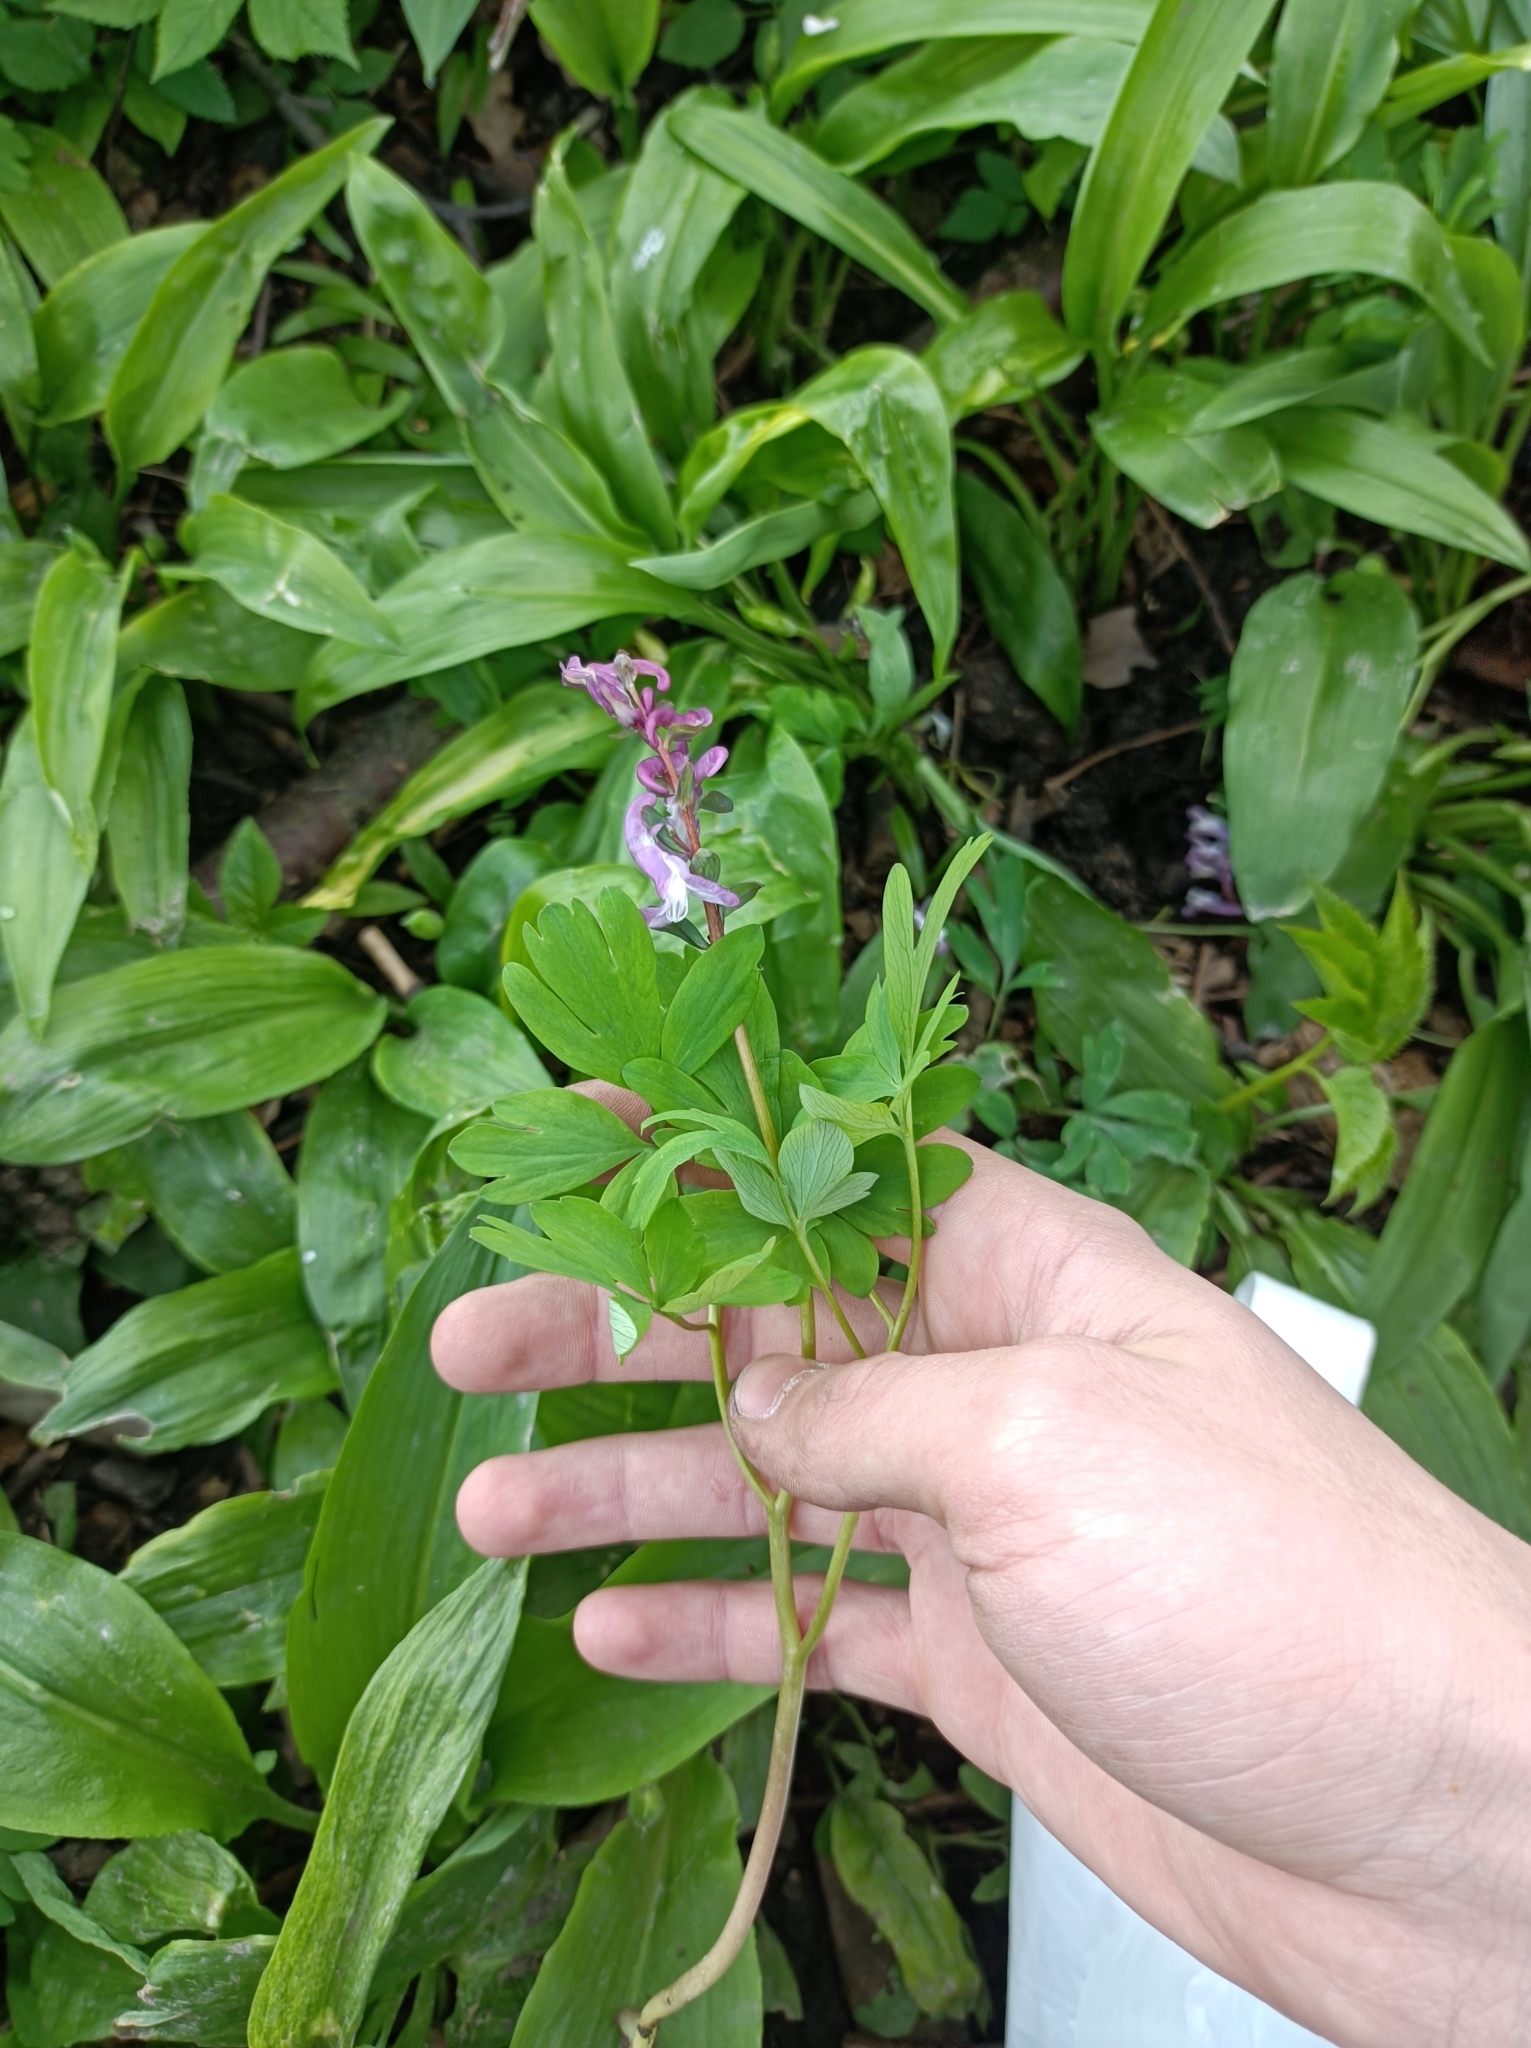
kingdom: Plantae
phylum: Tracheophyta
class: Magnoliopsida
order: Ranunculales
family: Papaveraceae
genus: Corydalis
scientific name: Corydalis cava
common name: Hollowroot
